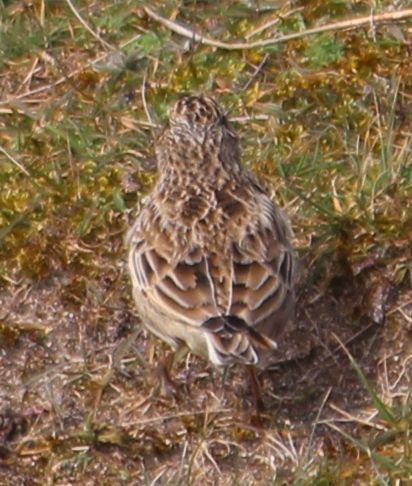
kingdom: Animalia
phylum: Chordata
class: Aves
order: Passeriformes
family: Alaudidae
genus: Alauda
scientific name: Alauda arvensis
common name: Eurasian skylark
